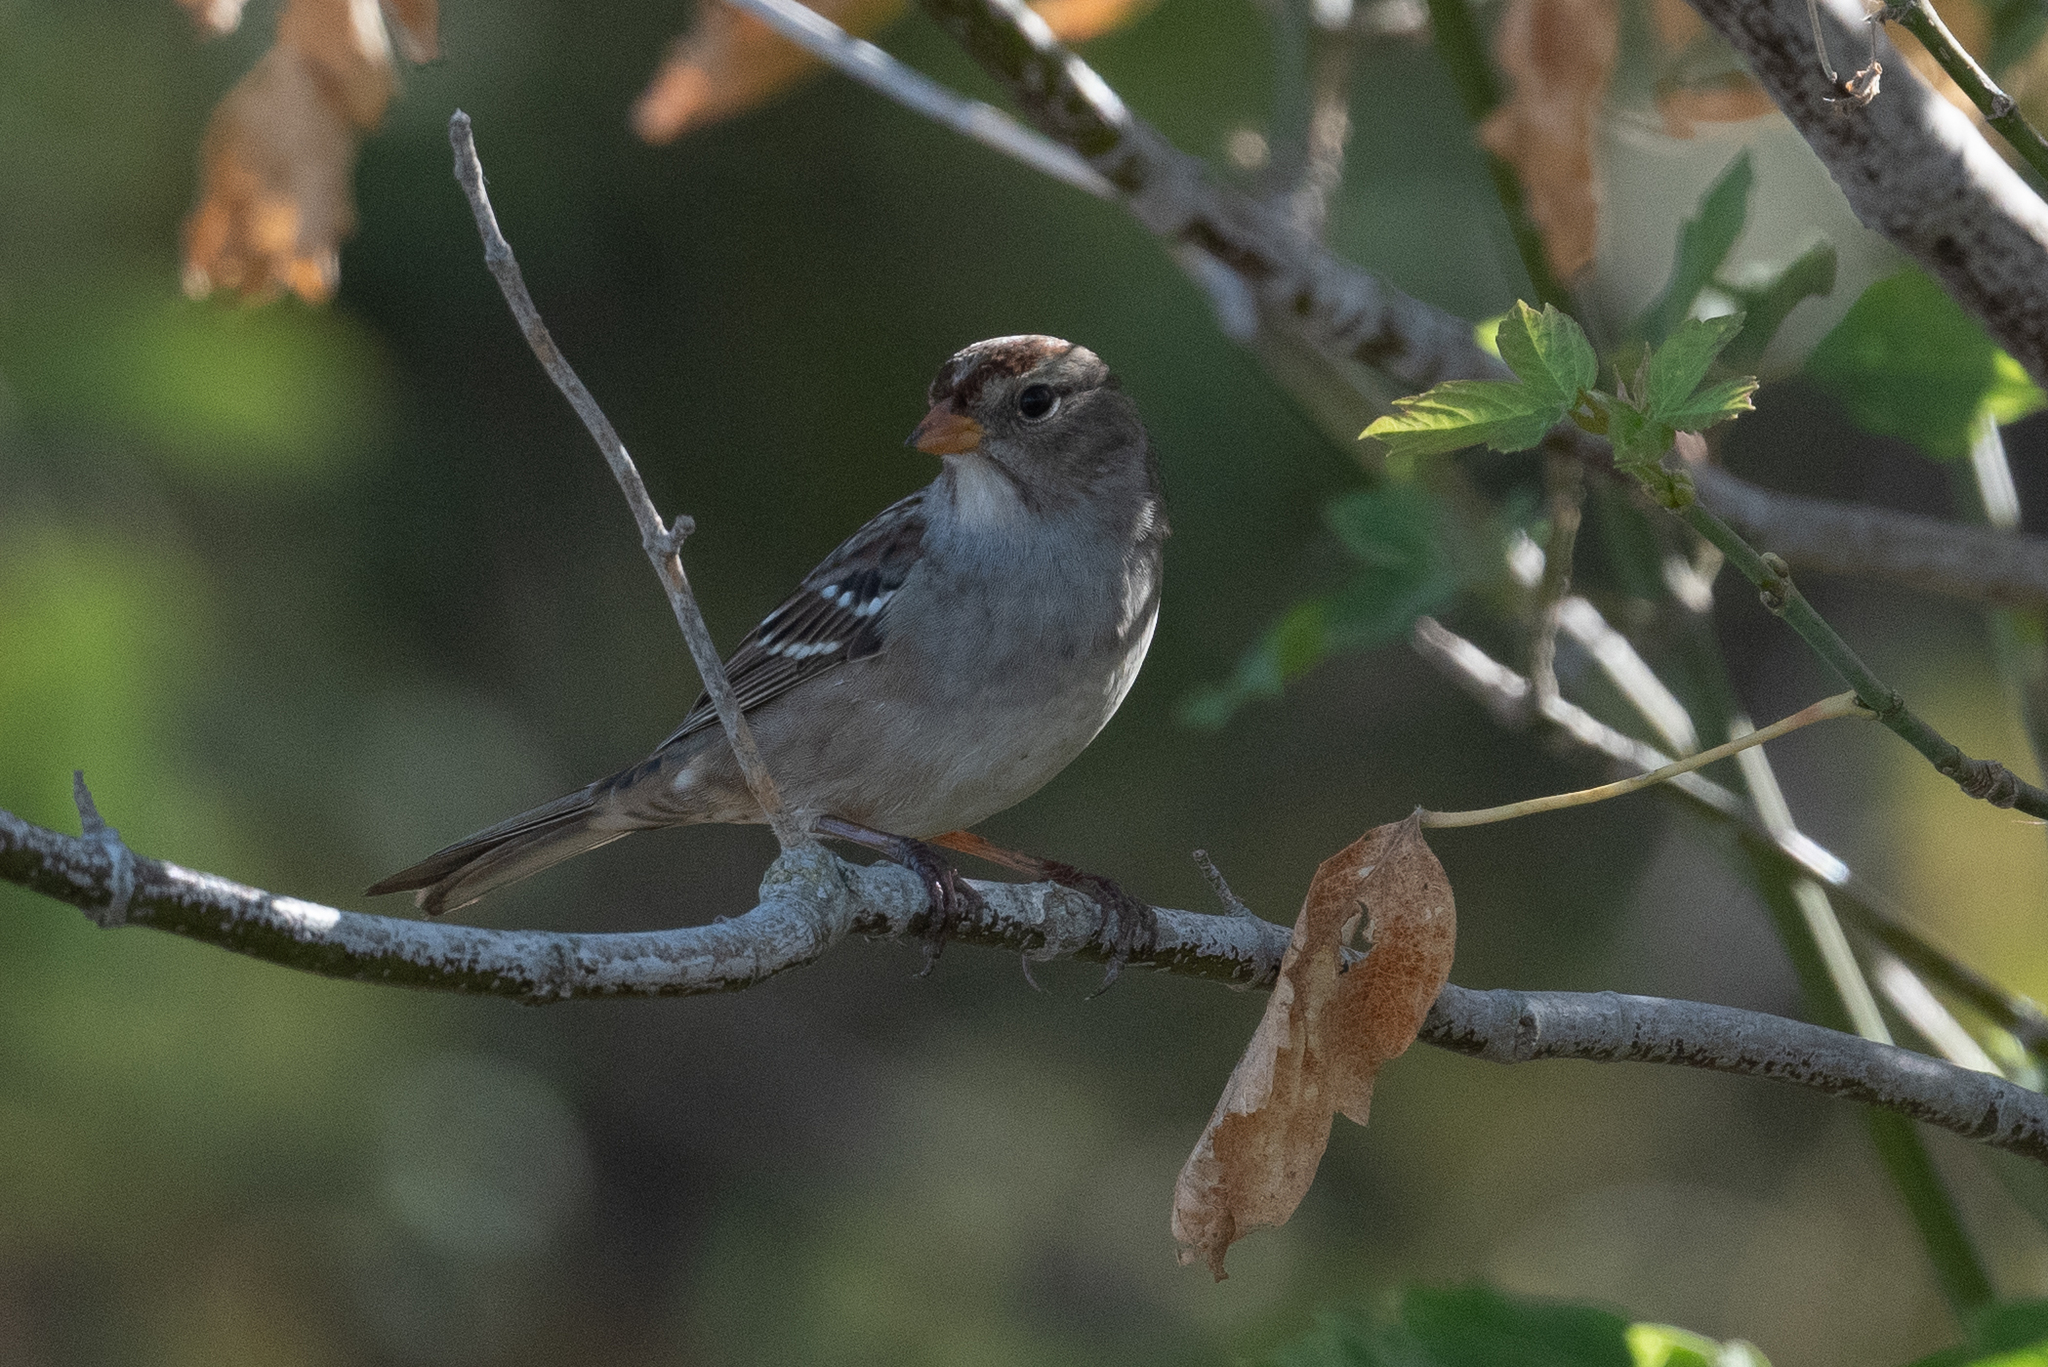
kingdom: Animalia
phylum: Chordata
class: Aves
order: Passeriformes
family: Passerellidae
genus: Zonotrichia
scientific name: Zonotrichia leucophrys
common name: White-crowned sparrow
